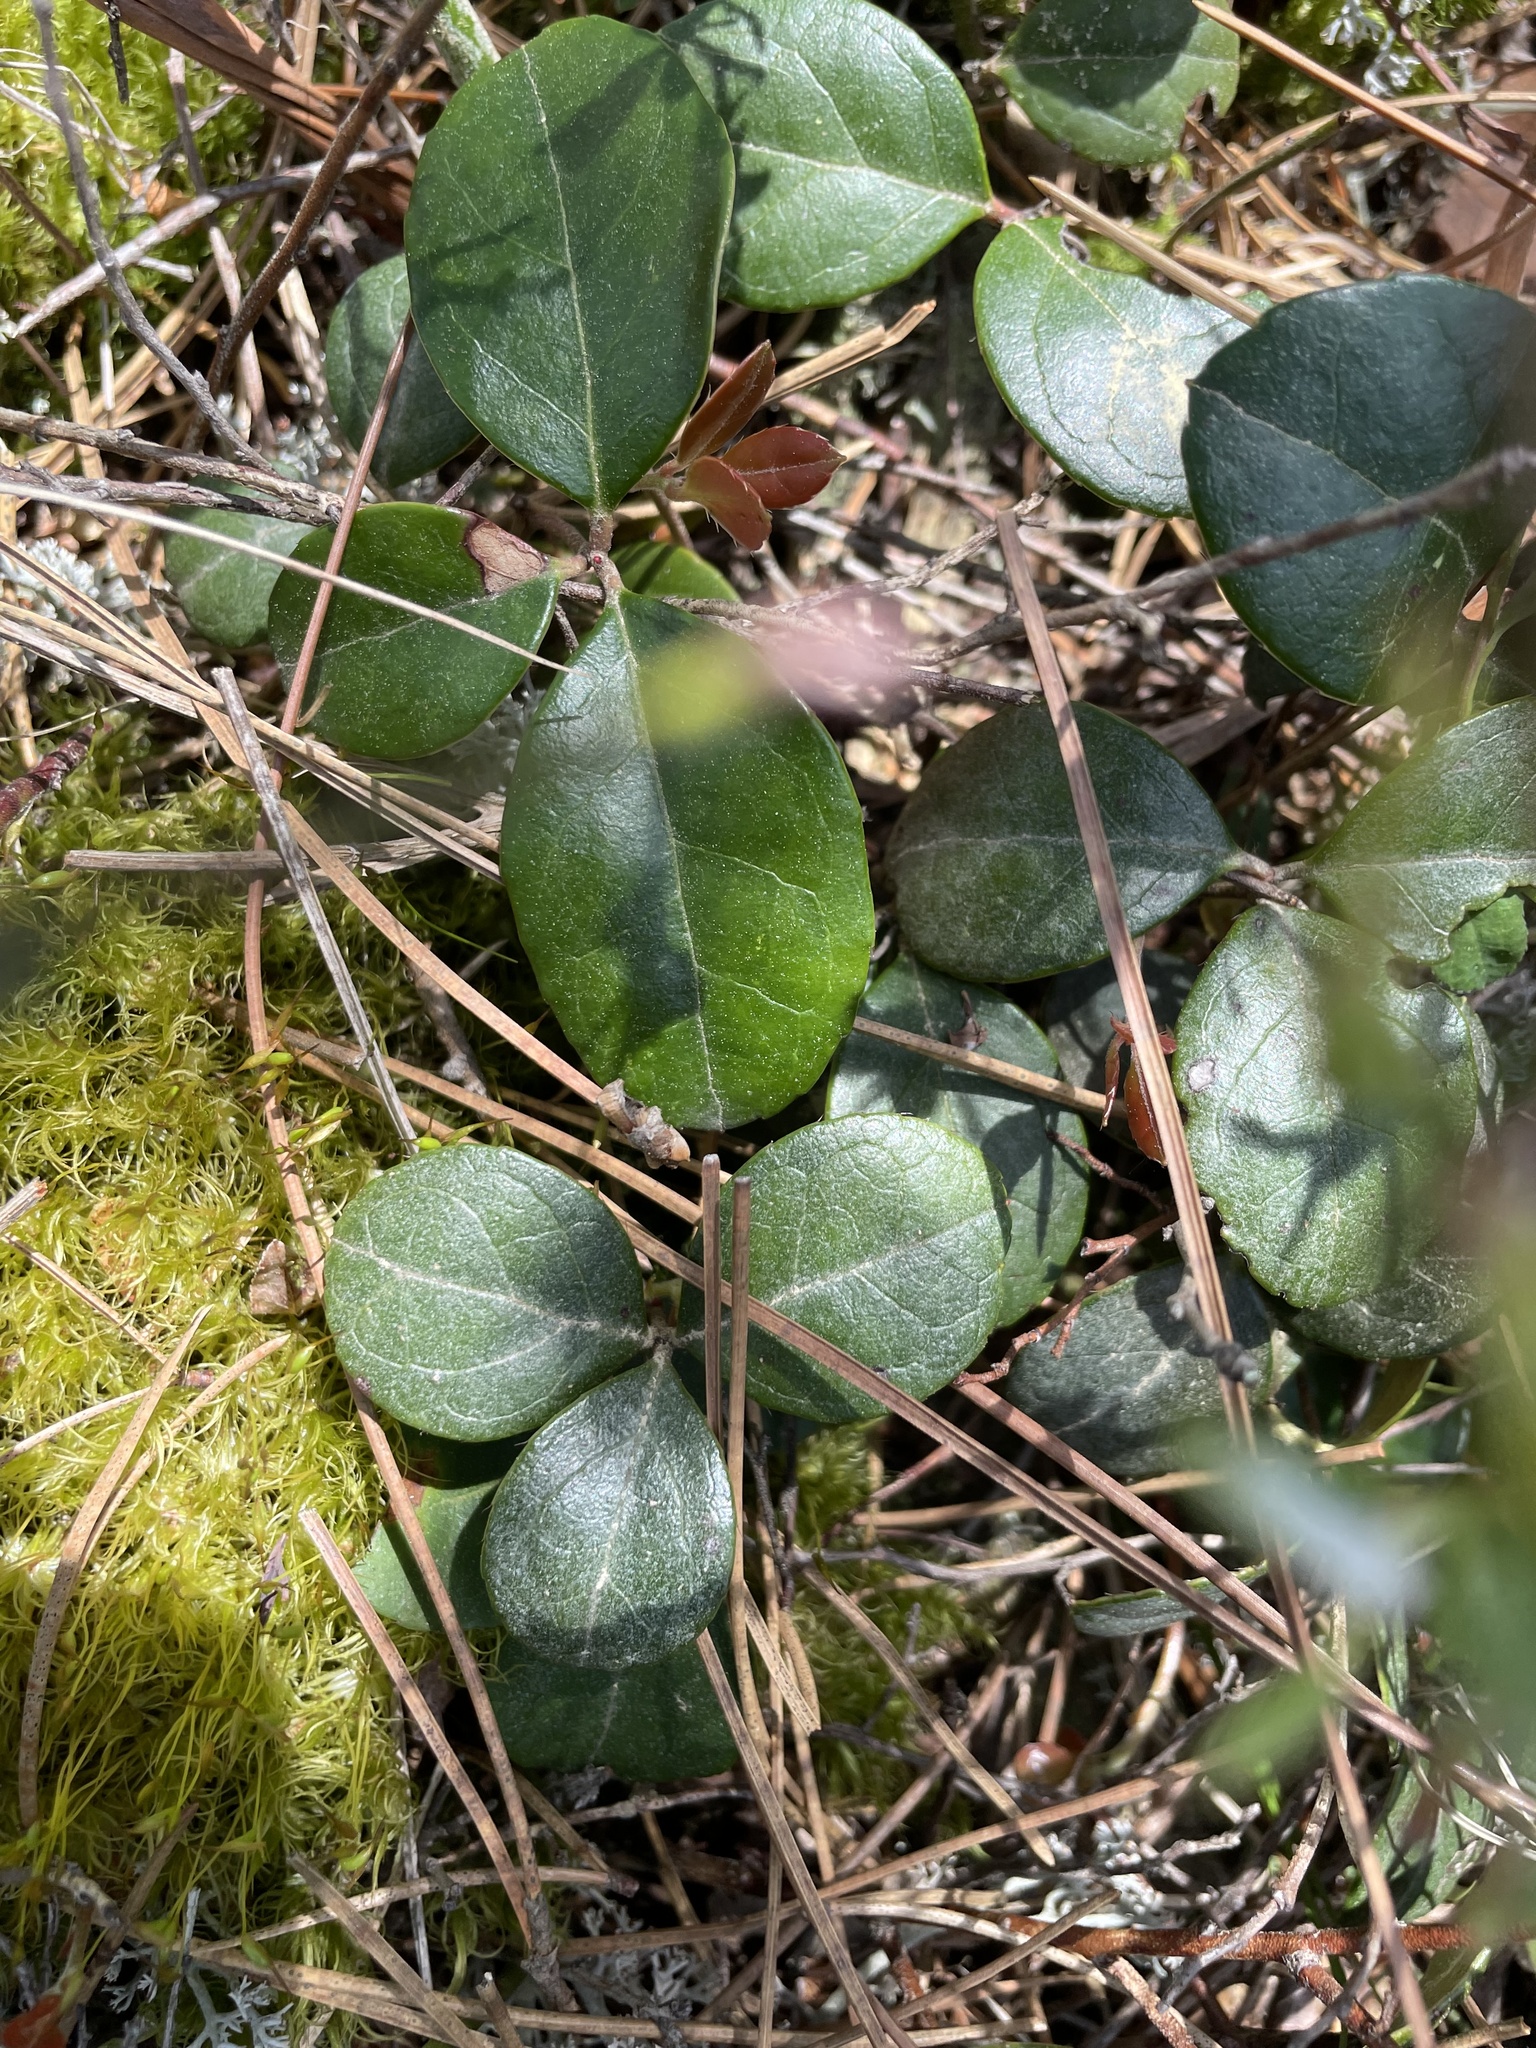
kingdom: Plantae
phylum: Tracheophyta
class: Magnoliopsida
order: Ericales
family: Ericaceae
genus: Gaultheria
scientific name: Gaultheria procumbens
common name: Checkerberry
